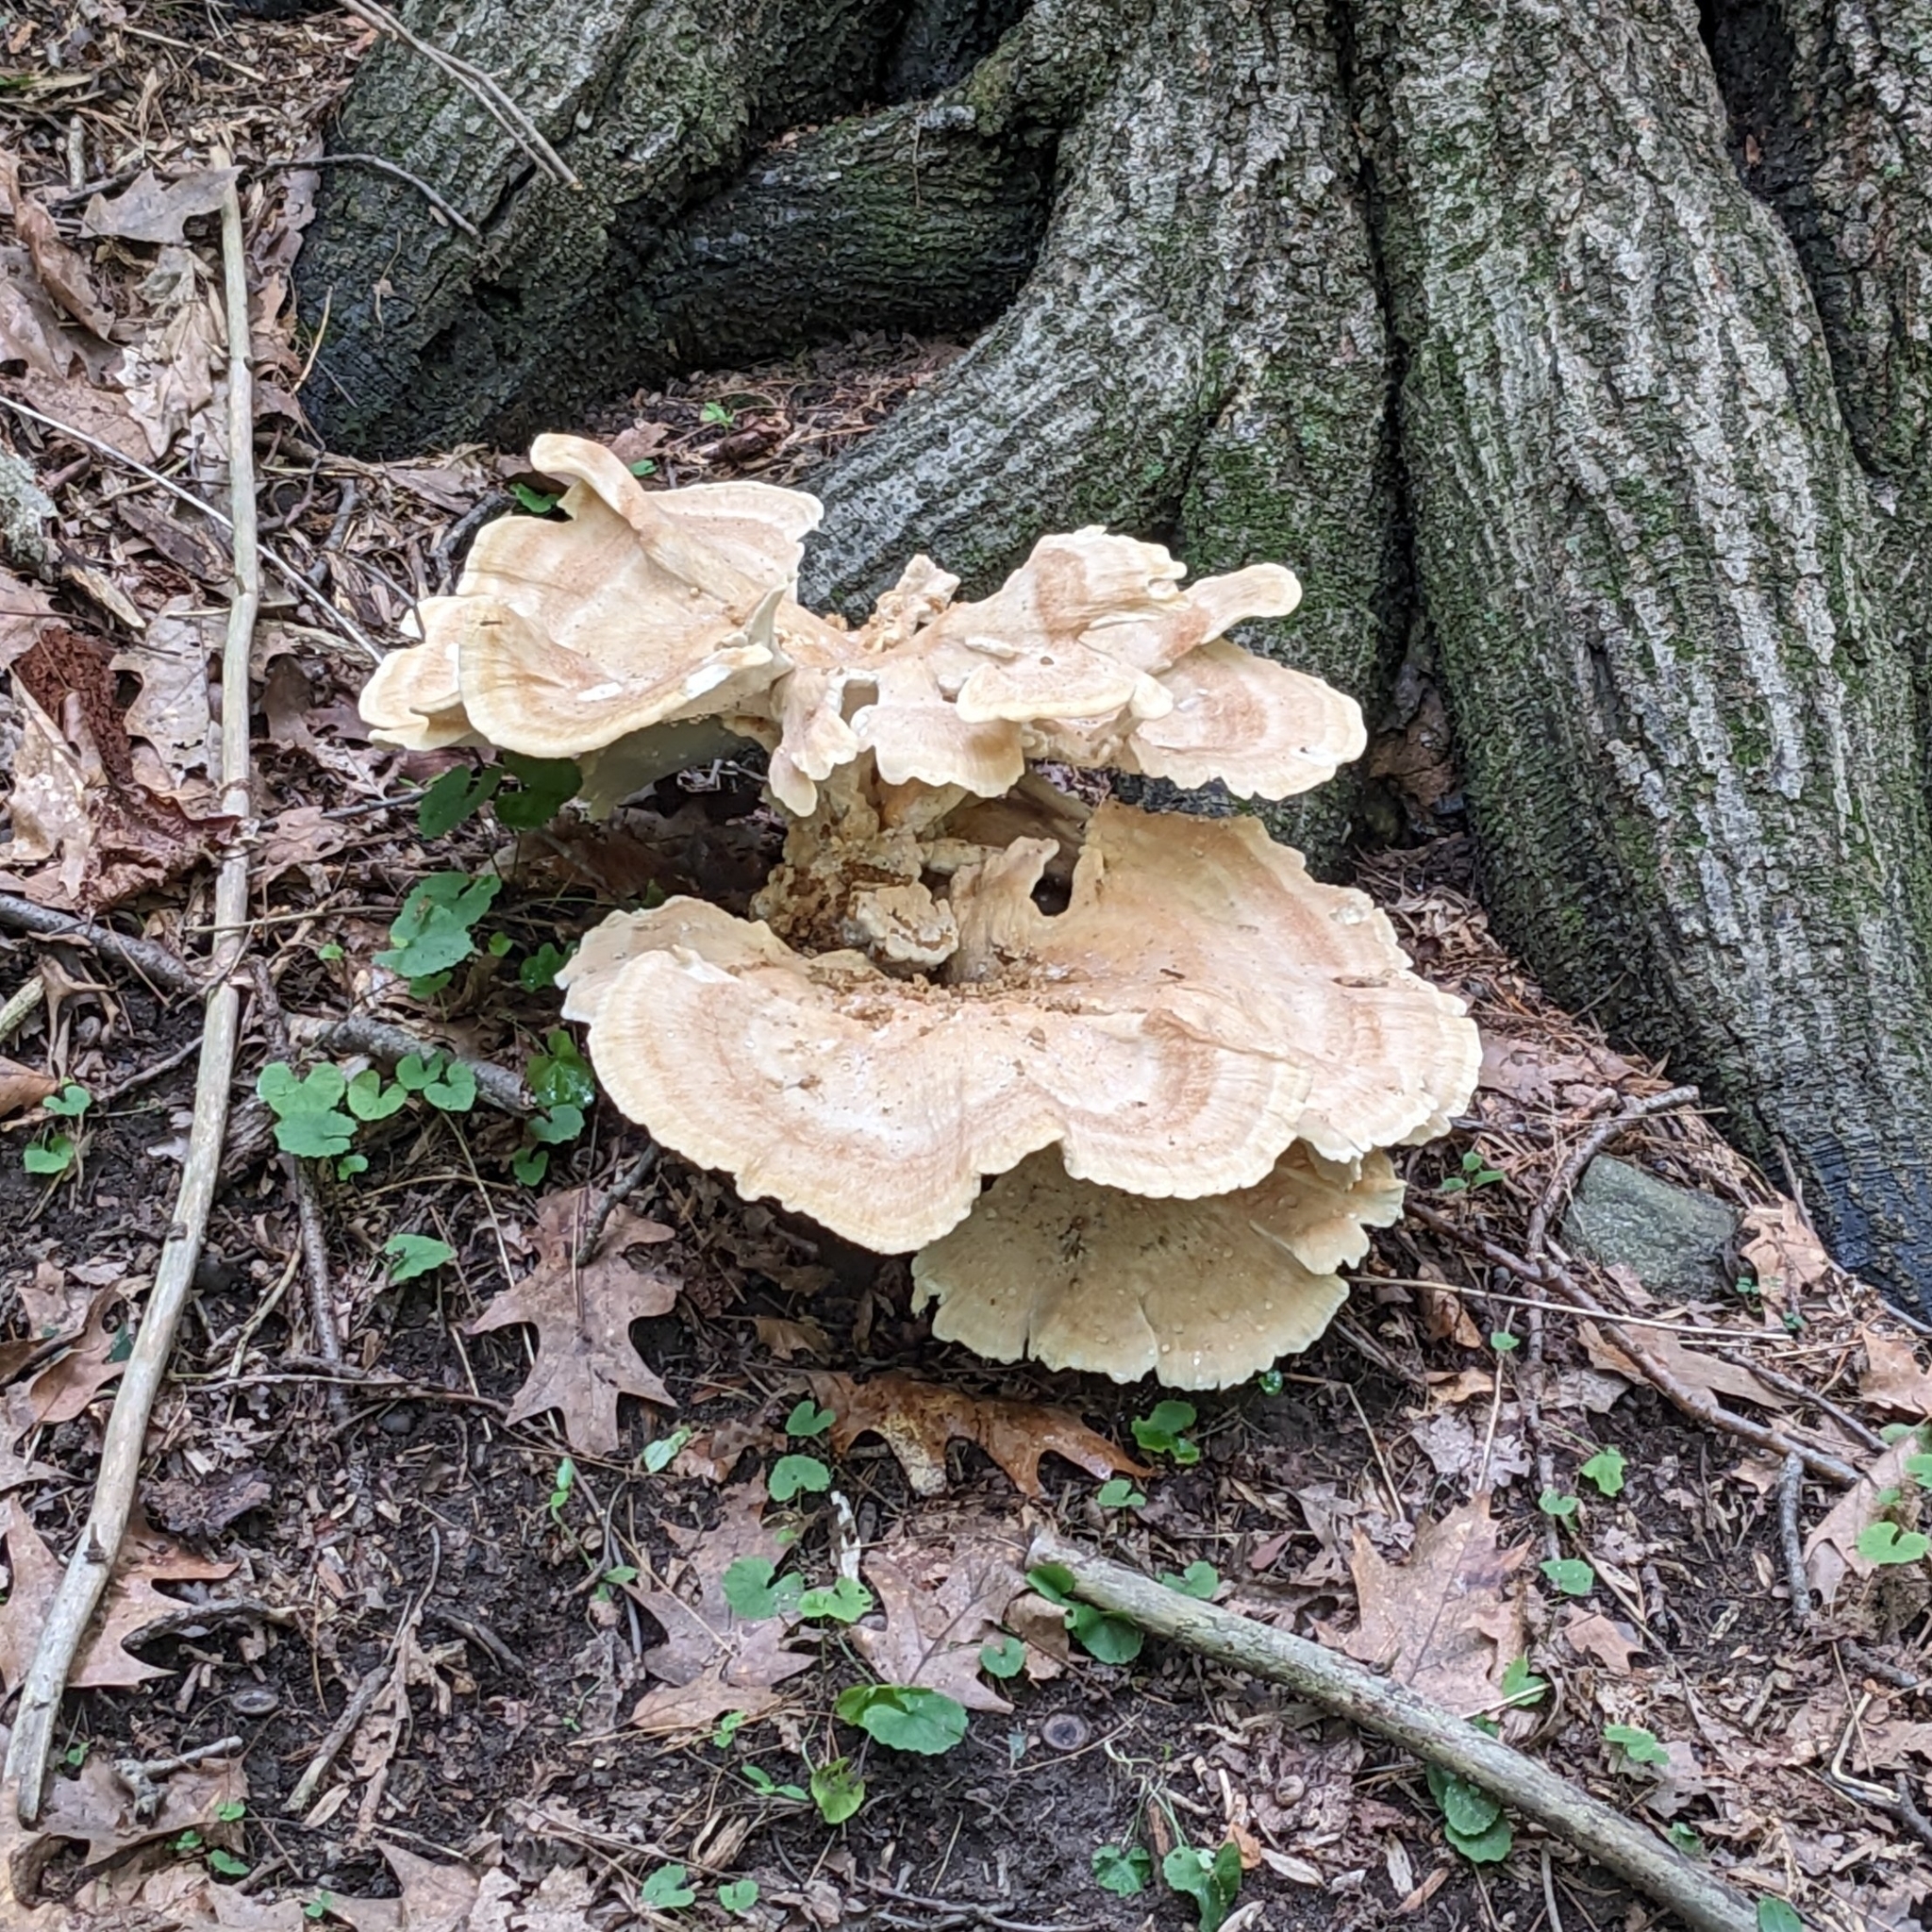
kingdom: Fungi
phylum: Basidiomycota
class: Agaricomycetes
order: Russulales
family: Bondarzewiaceae
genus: Bondarzewia
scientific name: Bondarzewia berkeleyi
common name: Berkeley's polypore
